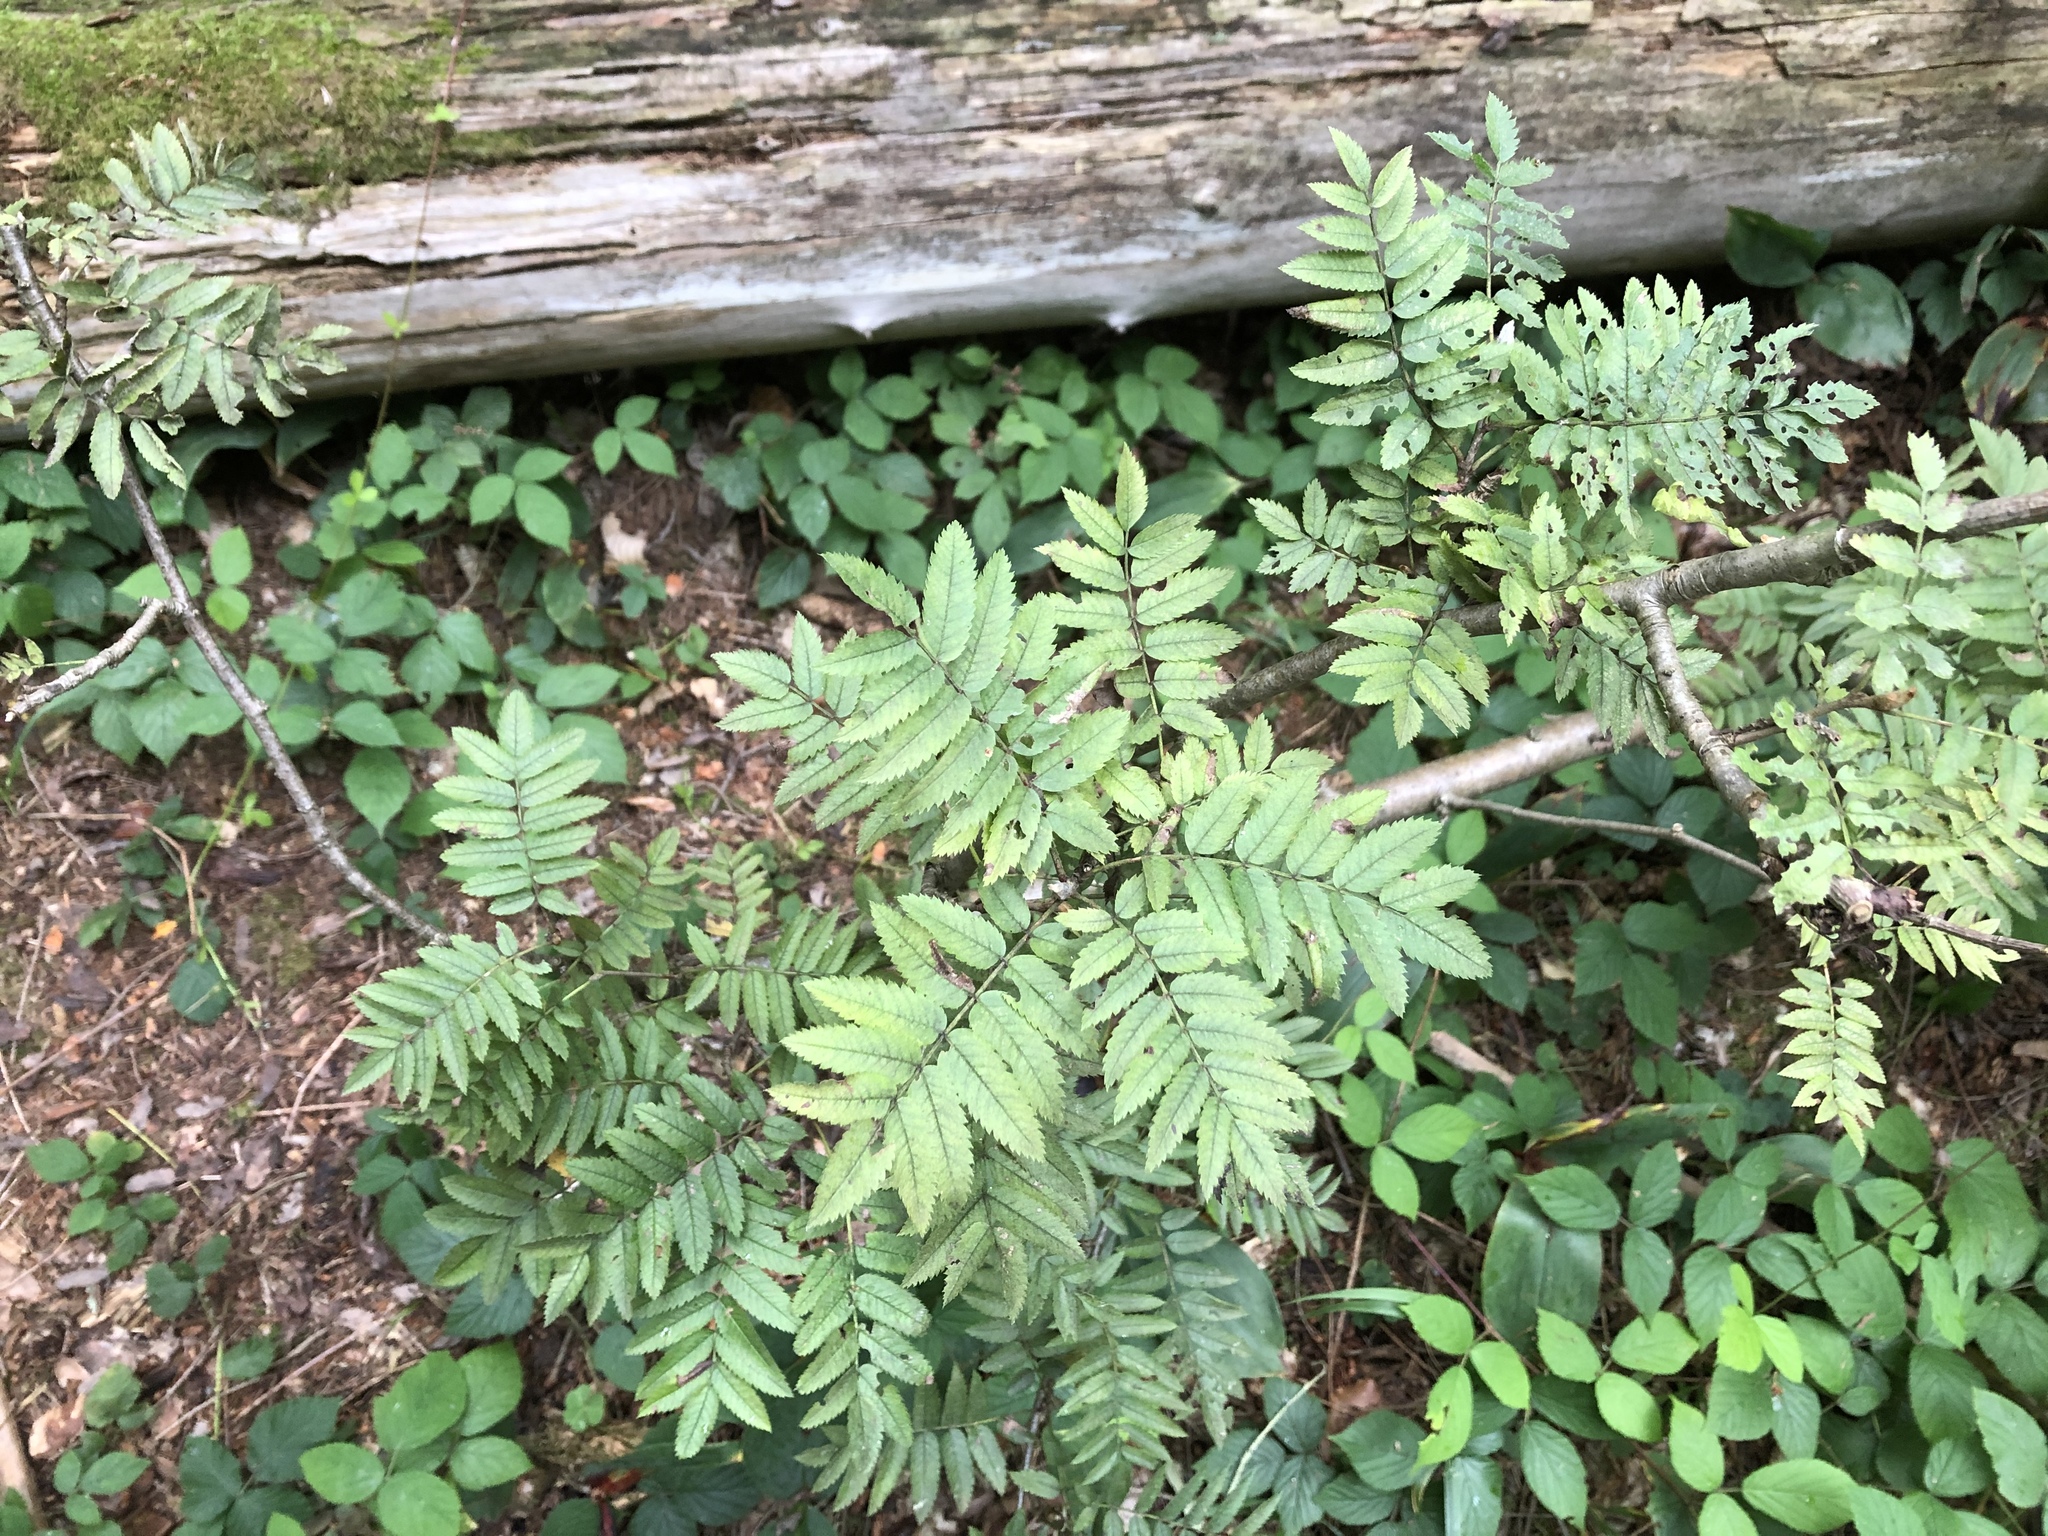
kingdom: Plantae
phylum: Tracheophyta
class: Magnoliopsida
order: Rosales
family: Rosaceae
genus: Sorbus
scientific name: Sorbus aucuparia
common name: Rowan
